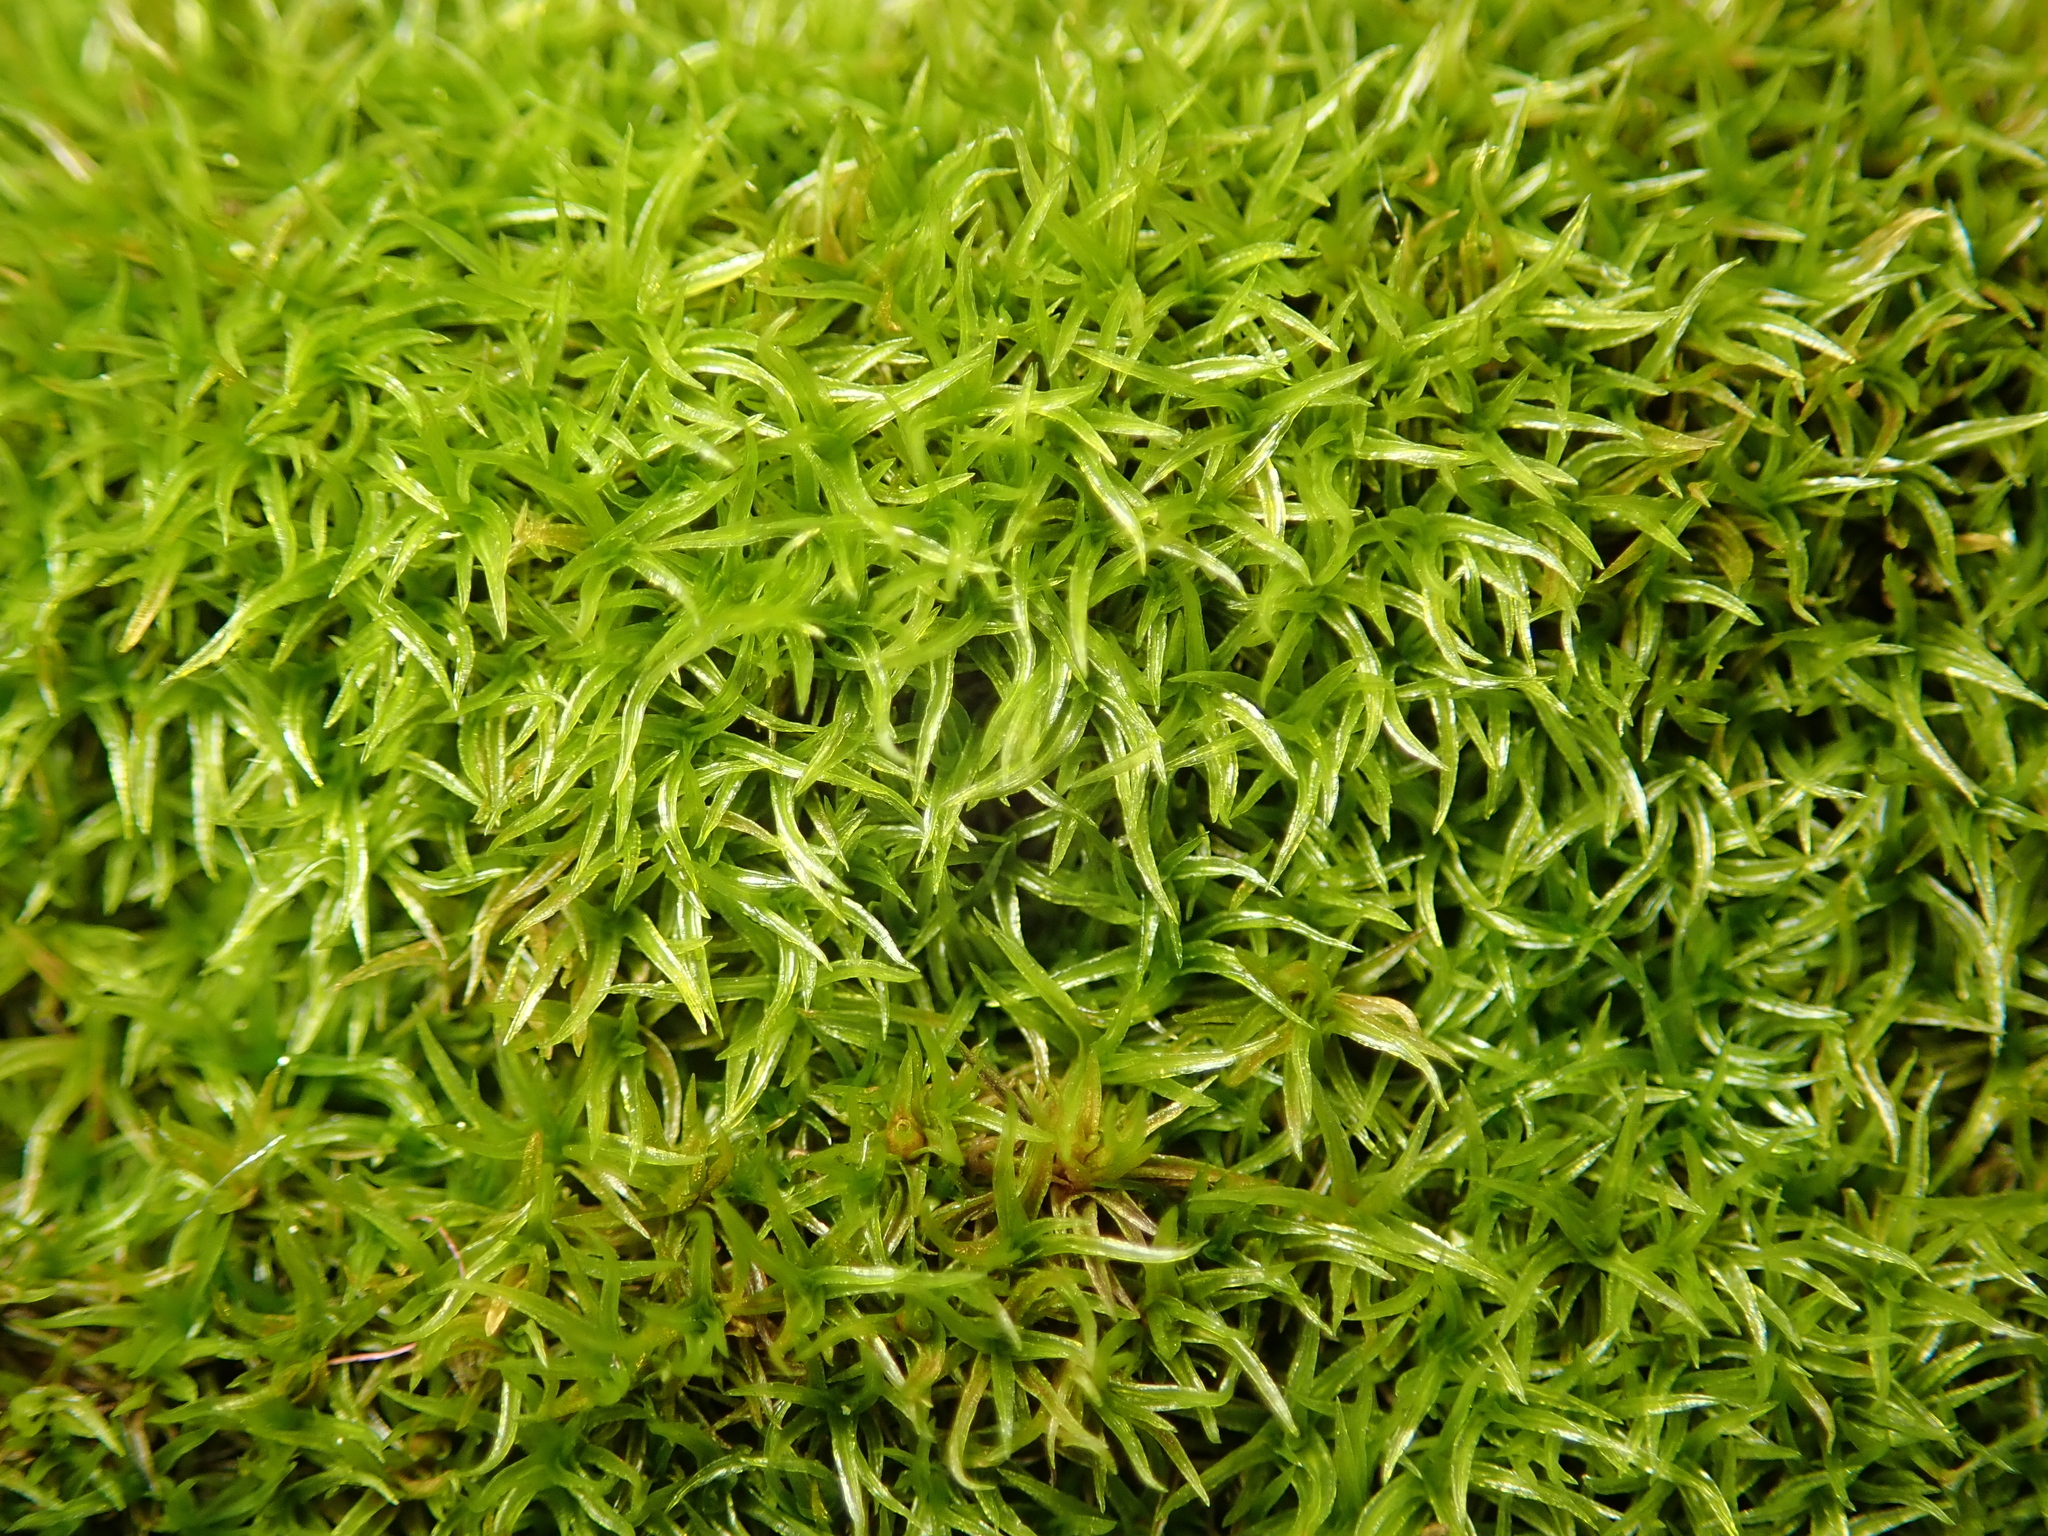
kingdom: Plantae
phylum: Bryophyta
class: Bryopsida
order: Dicranales
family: Rhabdoweisiaceae
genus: Dicranoweisia
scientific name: Dicranoweisia cirrata
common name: Common pincushion
